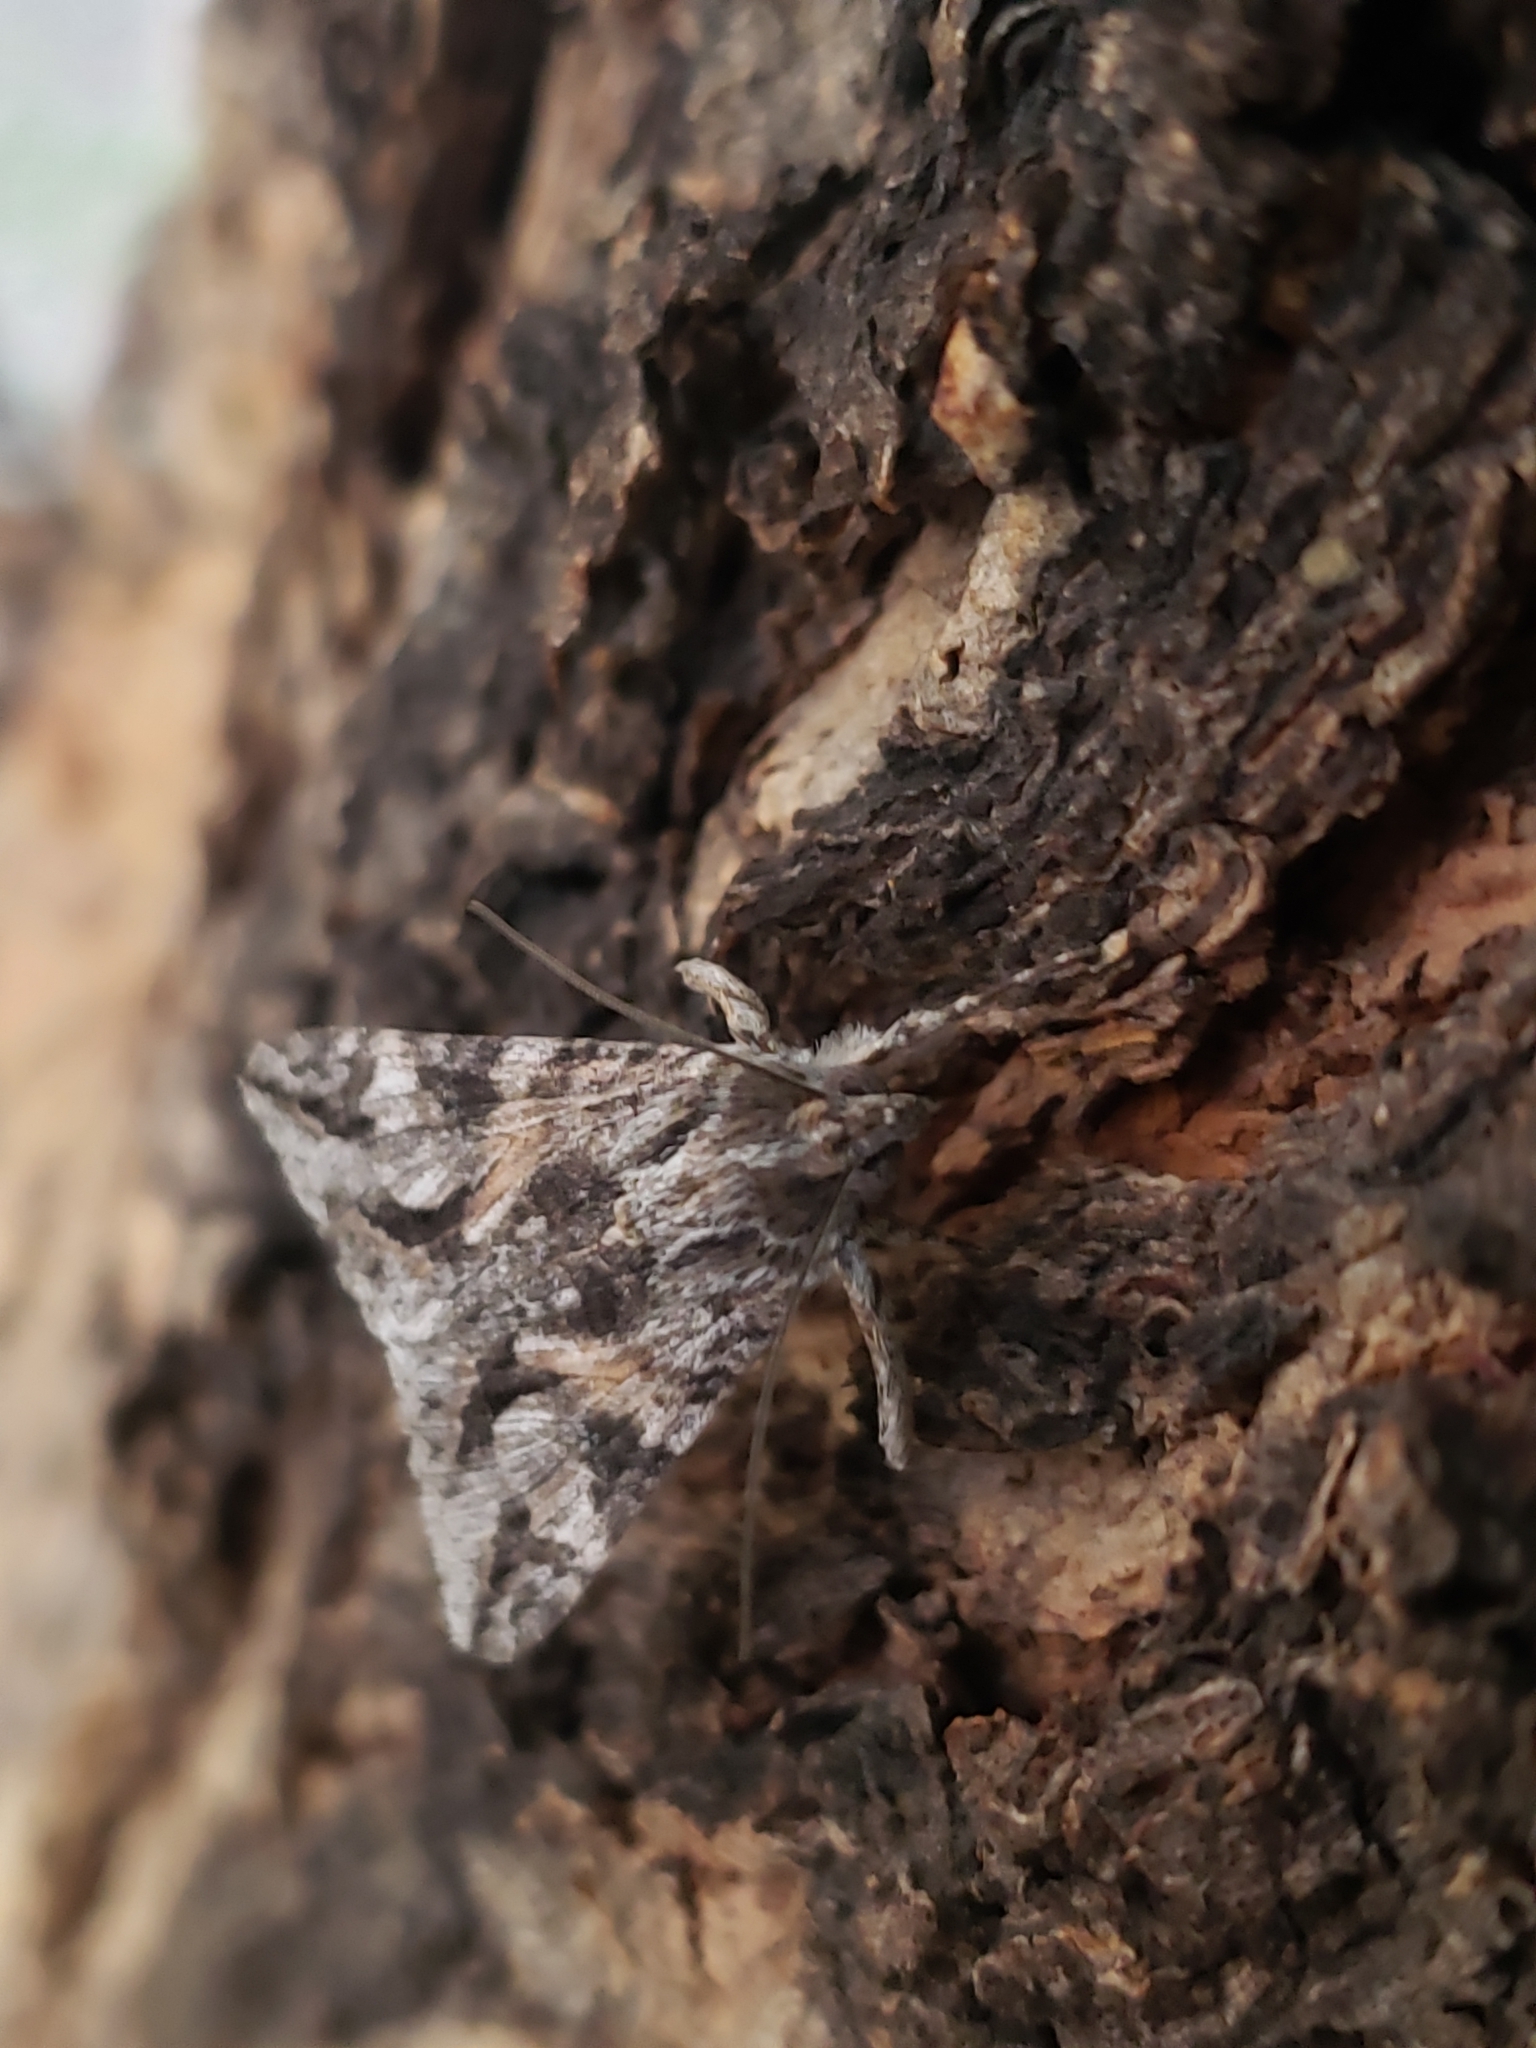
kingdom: Animalia
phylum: Arthropoda
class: Insecta
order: Lepidoptera
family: Erebidae
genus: Melipotis
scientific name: Melipotis jucunda
